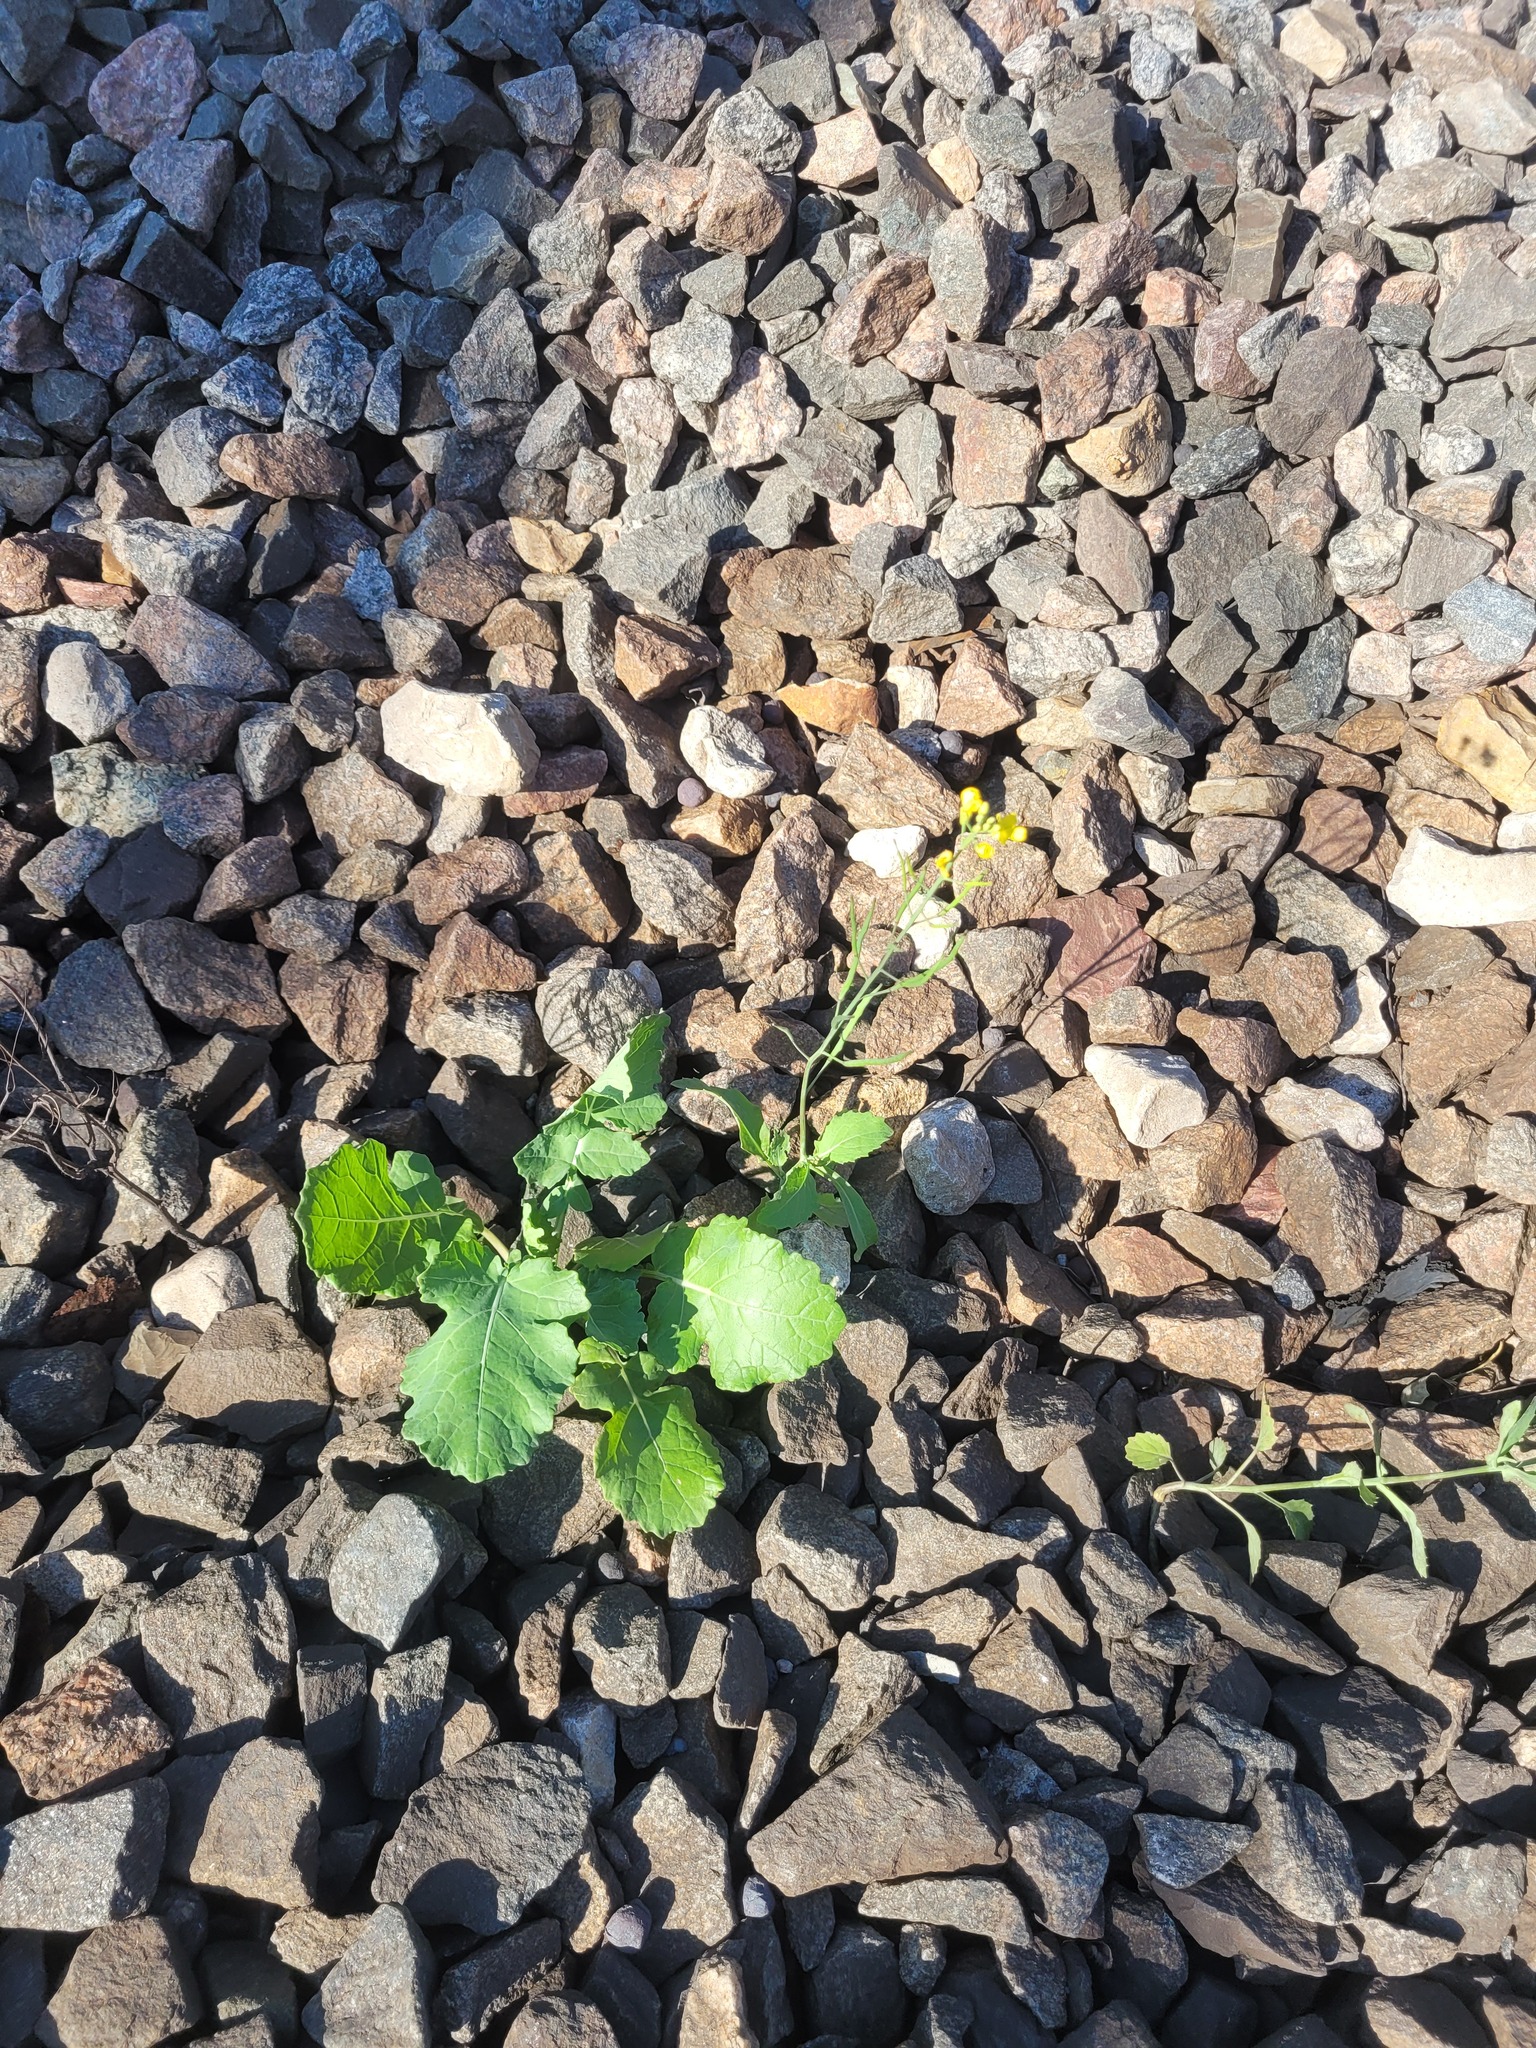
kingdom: Plantae
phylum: Tracheophyta
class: Magnoliopsida
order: Brassicales
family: Brassicaceae
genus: Brassica
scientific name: Brassica napus
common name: Rape
